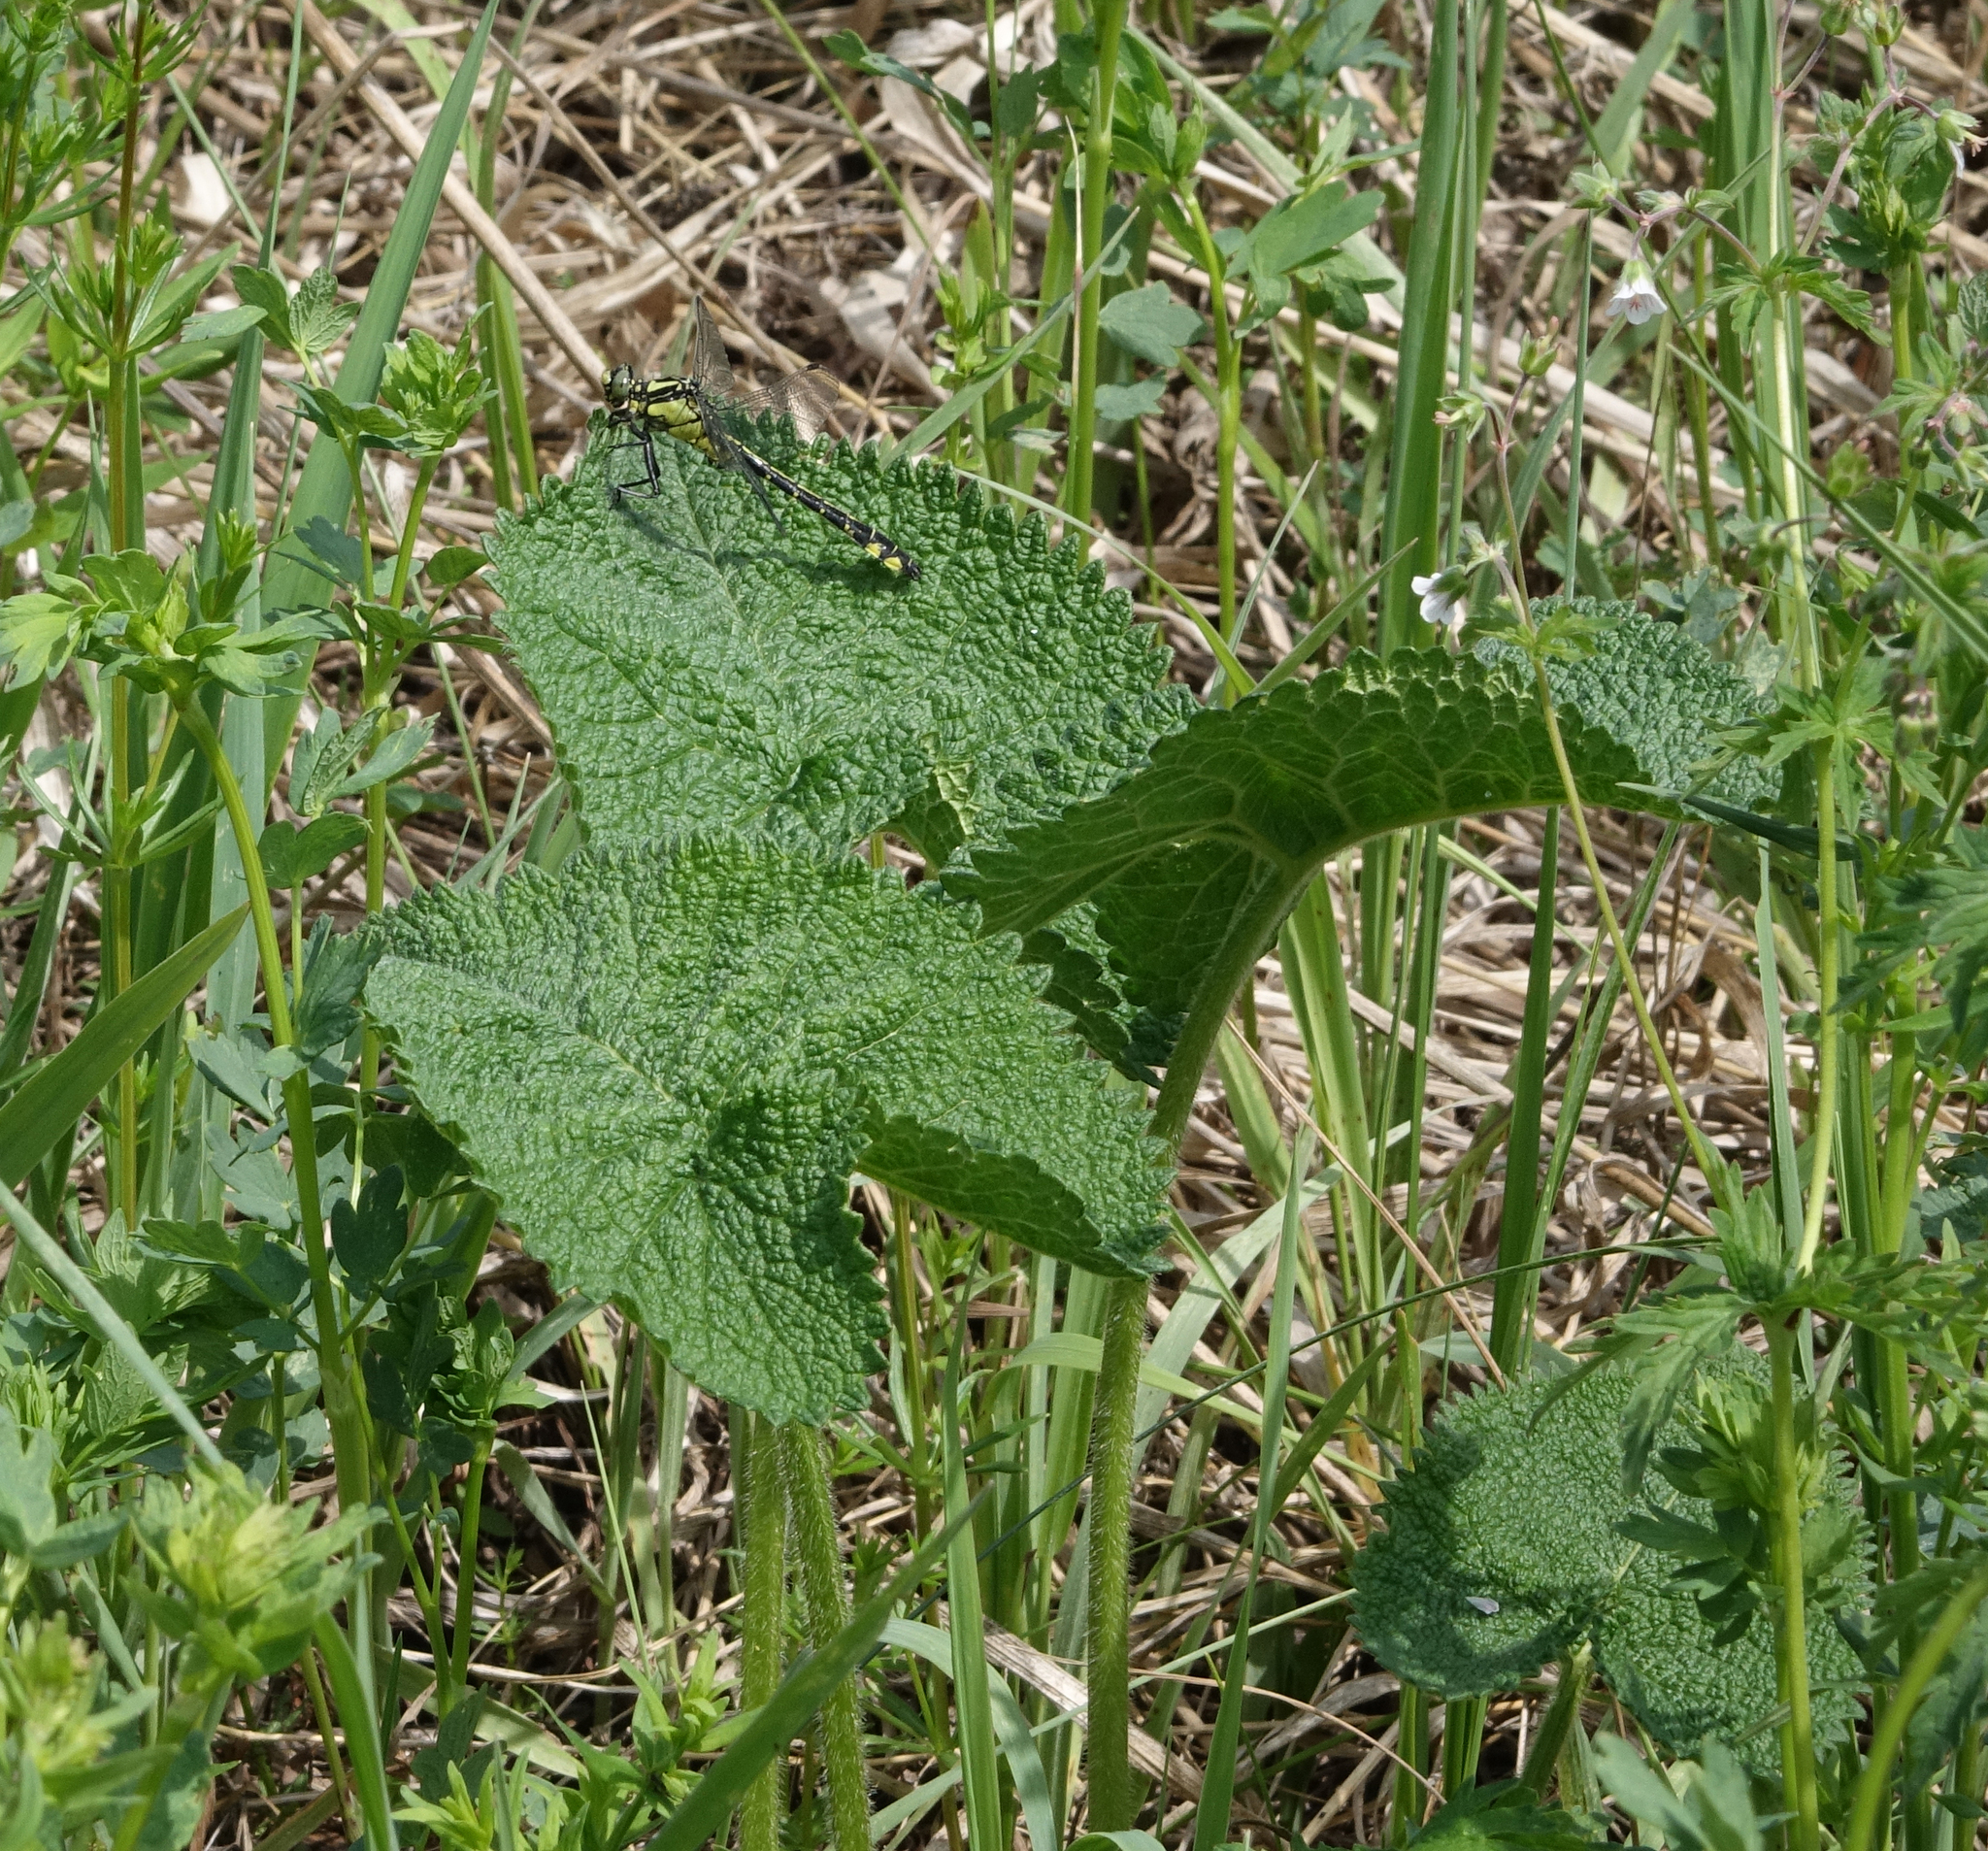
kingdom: Plantae
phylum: Tracheophyta
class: Magnoliopsida
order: Lamiales
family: Lamiaceae
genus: Phlomoides
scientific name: Phlomoides tuberosa
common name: Tuberous jerusalem sage
